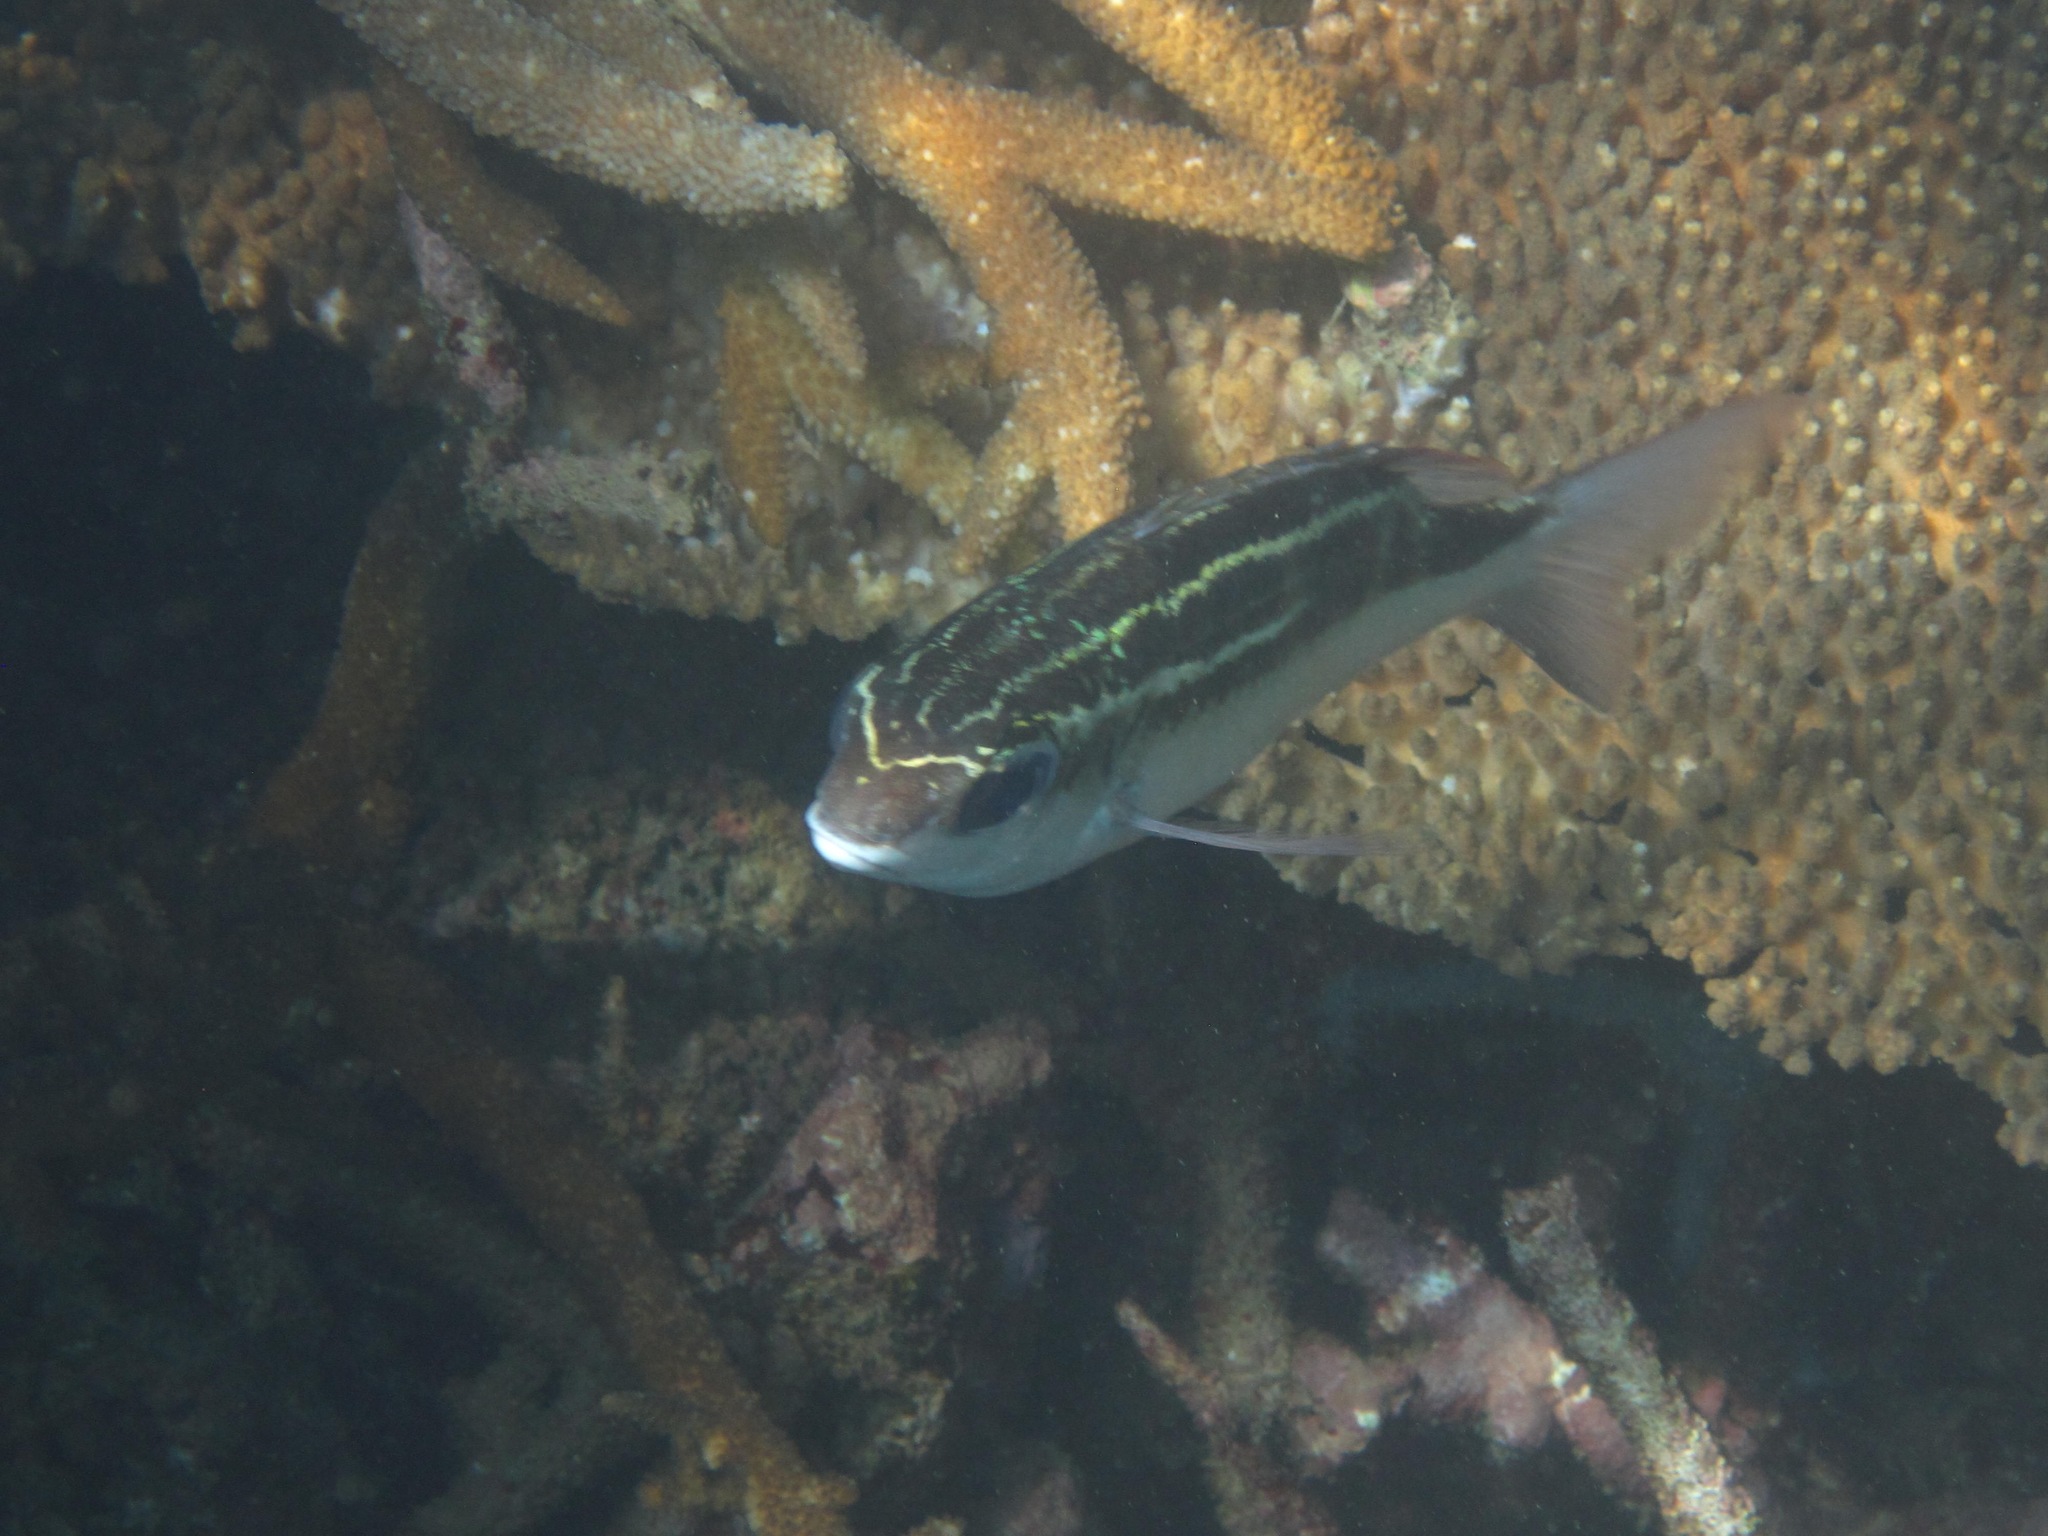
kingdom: Animalia
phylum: Chordata
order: Perciformes
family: Nemipteridae
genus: Scolopsis
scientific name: Scolopsis lineata
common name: Striped monocle bream
